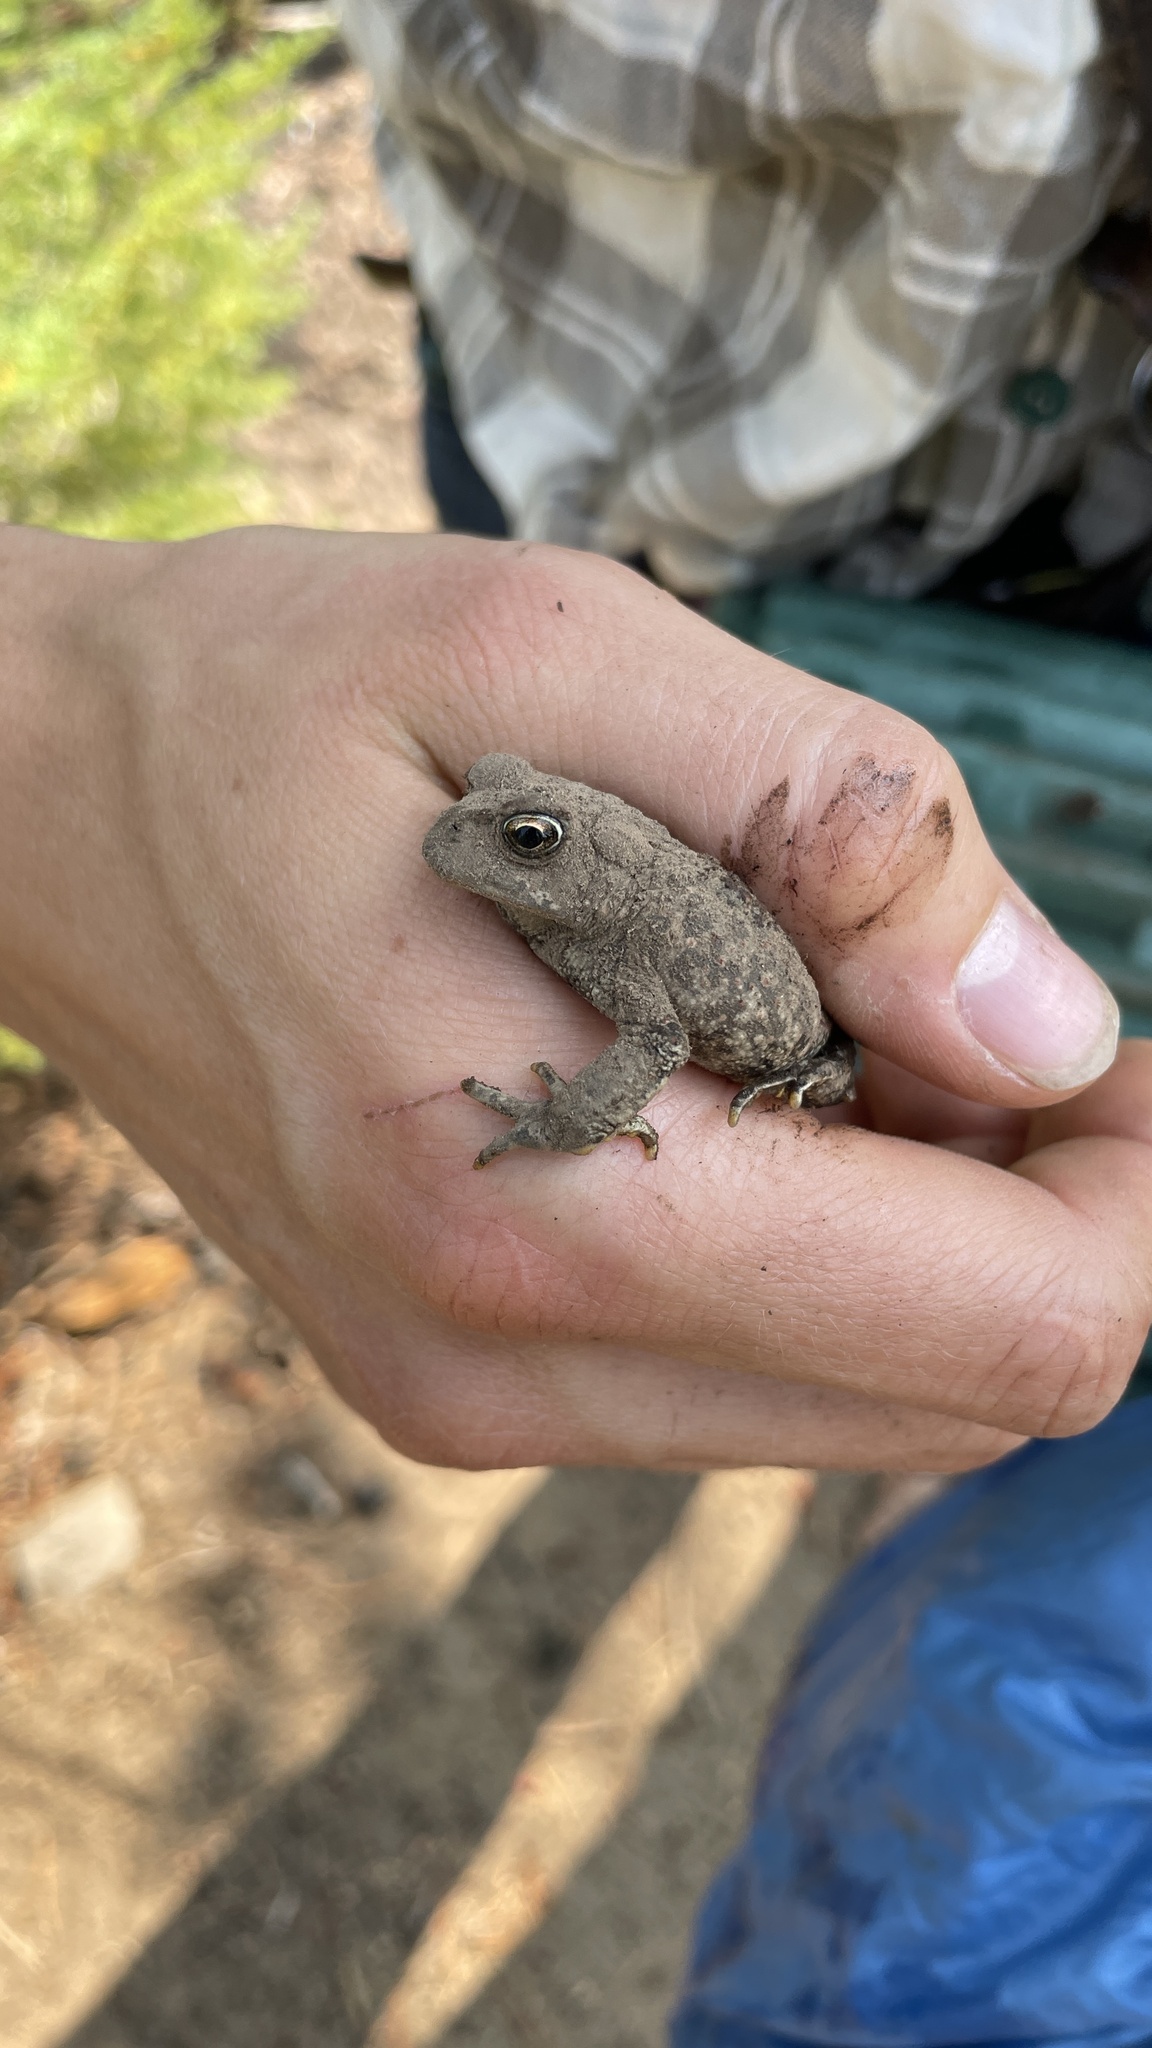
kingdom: Animalia
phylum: Chordata
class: Amphibia
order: Anura
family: Bufonidae
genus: Anaxyrus
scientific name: Anaxyrus boreas
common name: Western toad
